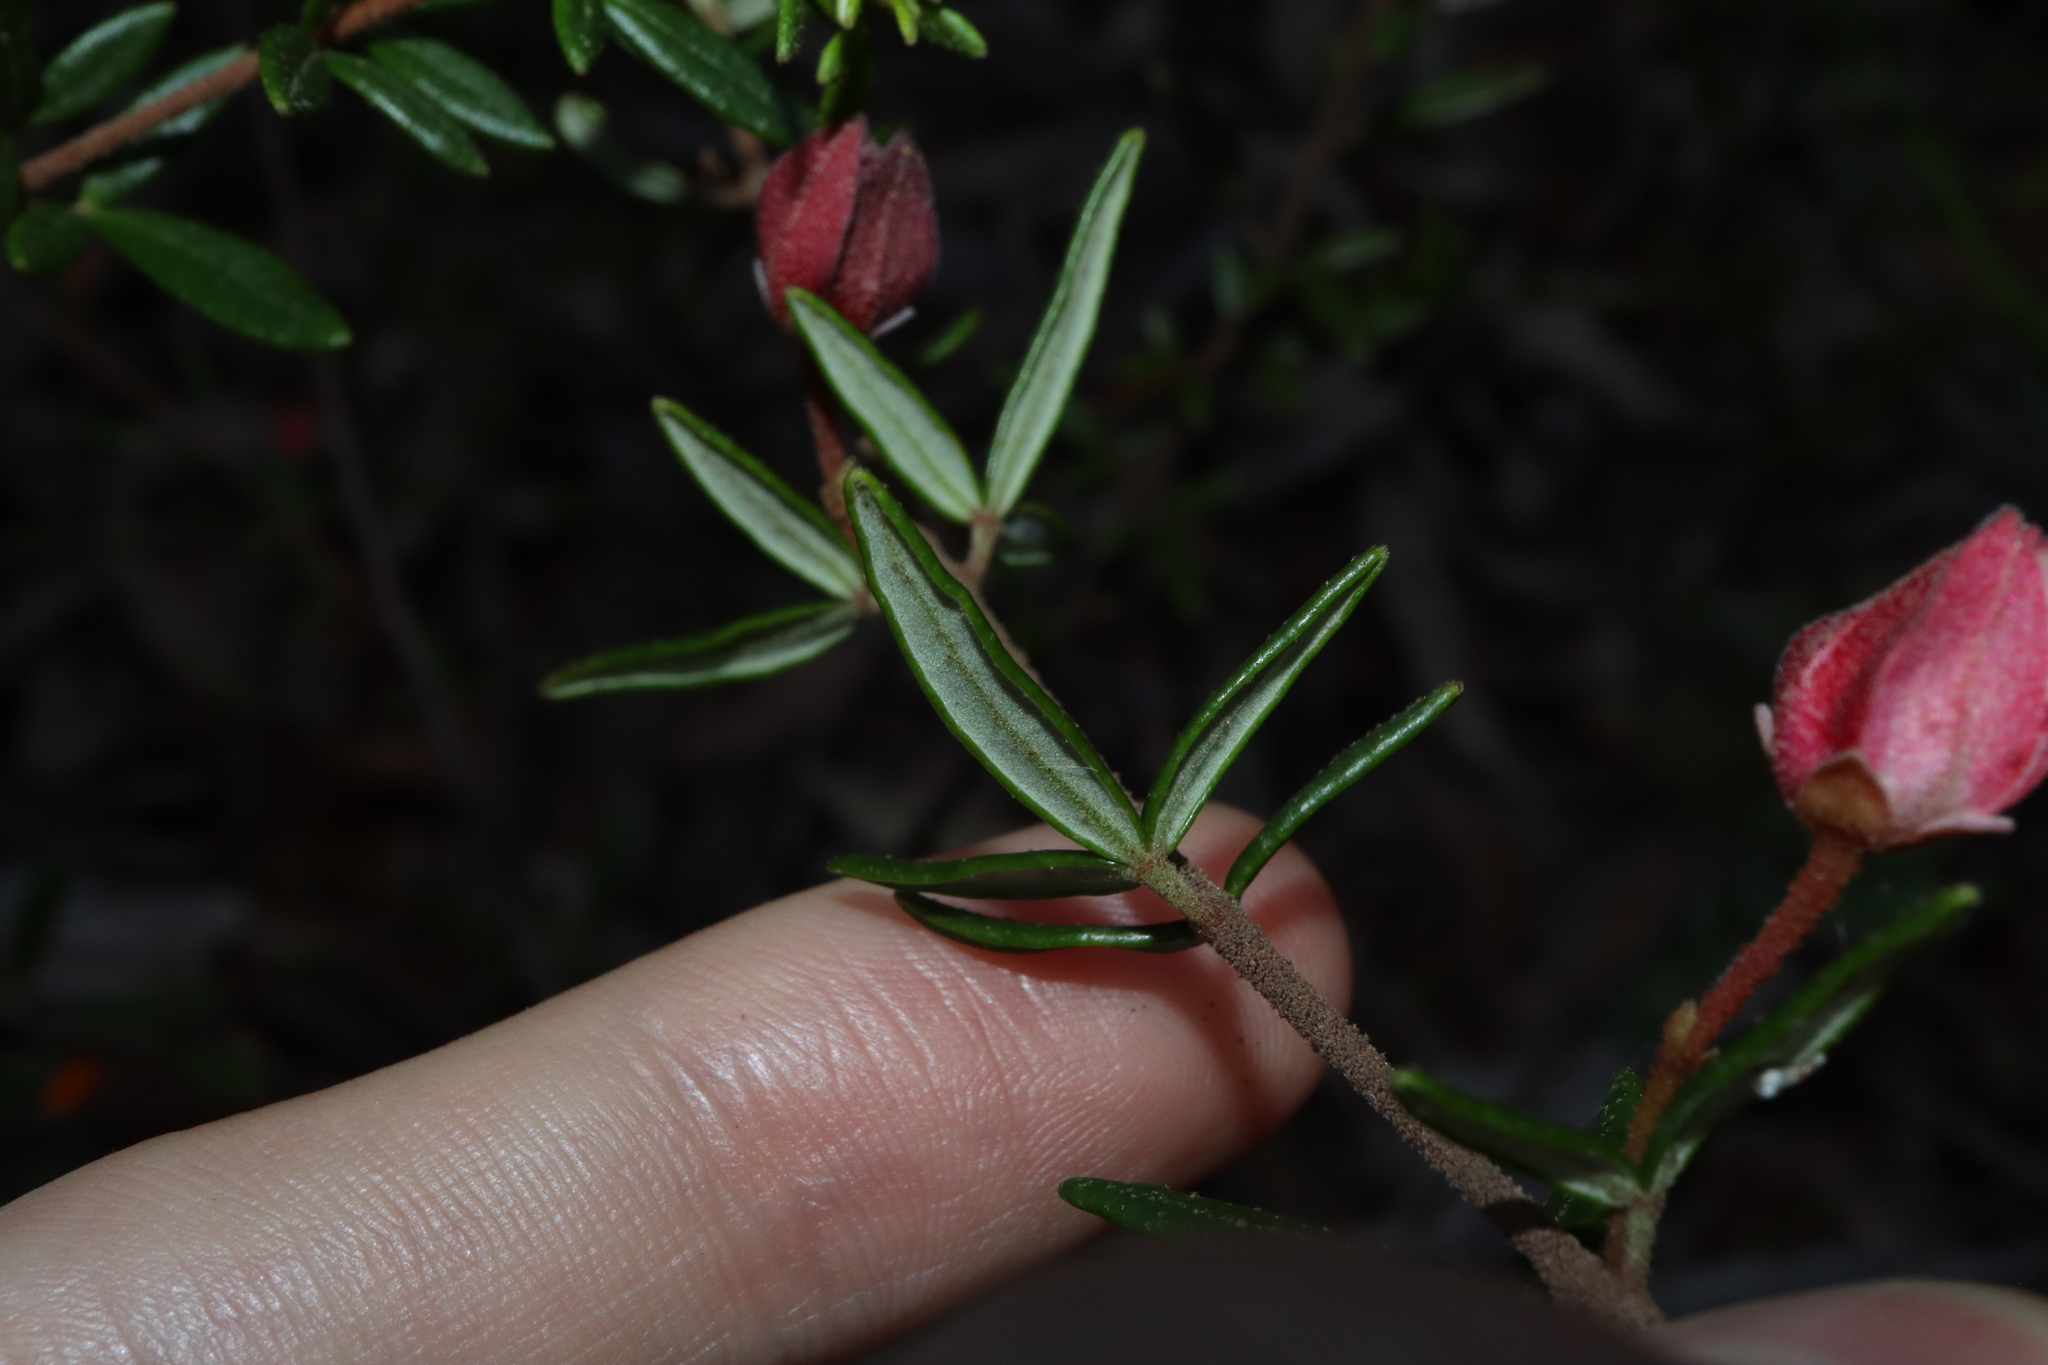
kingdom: Plantae
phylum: Tracheophyta
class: Magnoliopsida
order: Sapindales
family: Rutaceae
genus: Boronia
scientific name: Boronia ledifolia
